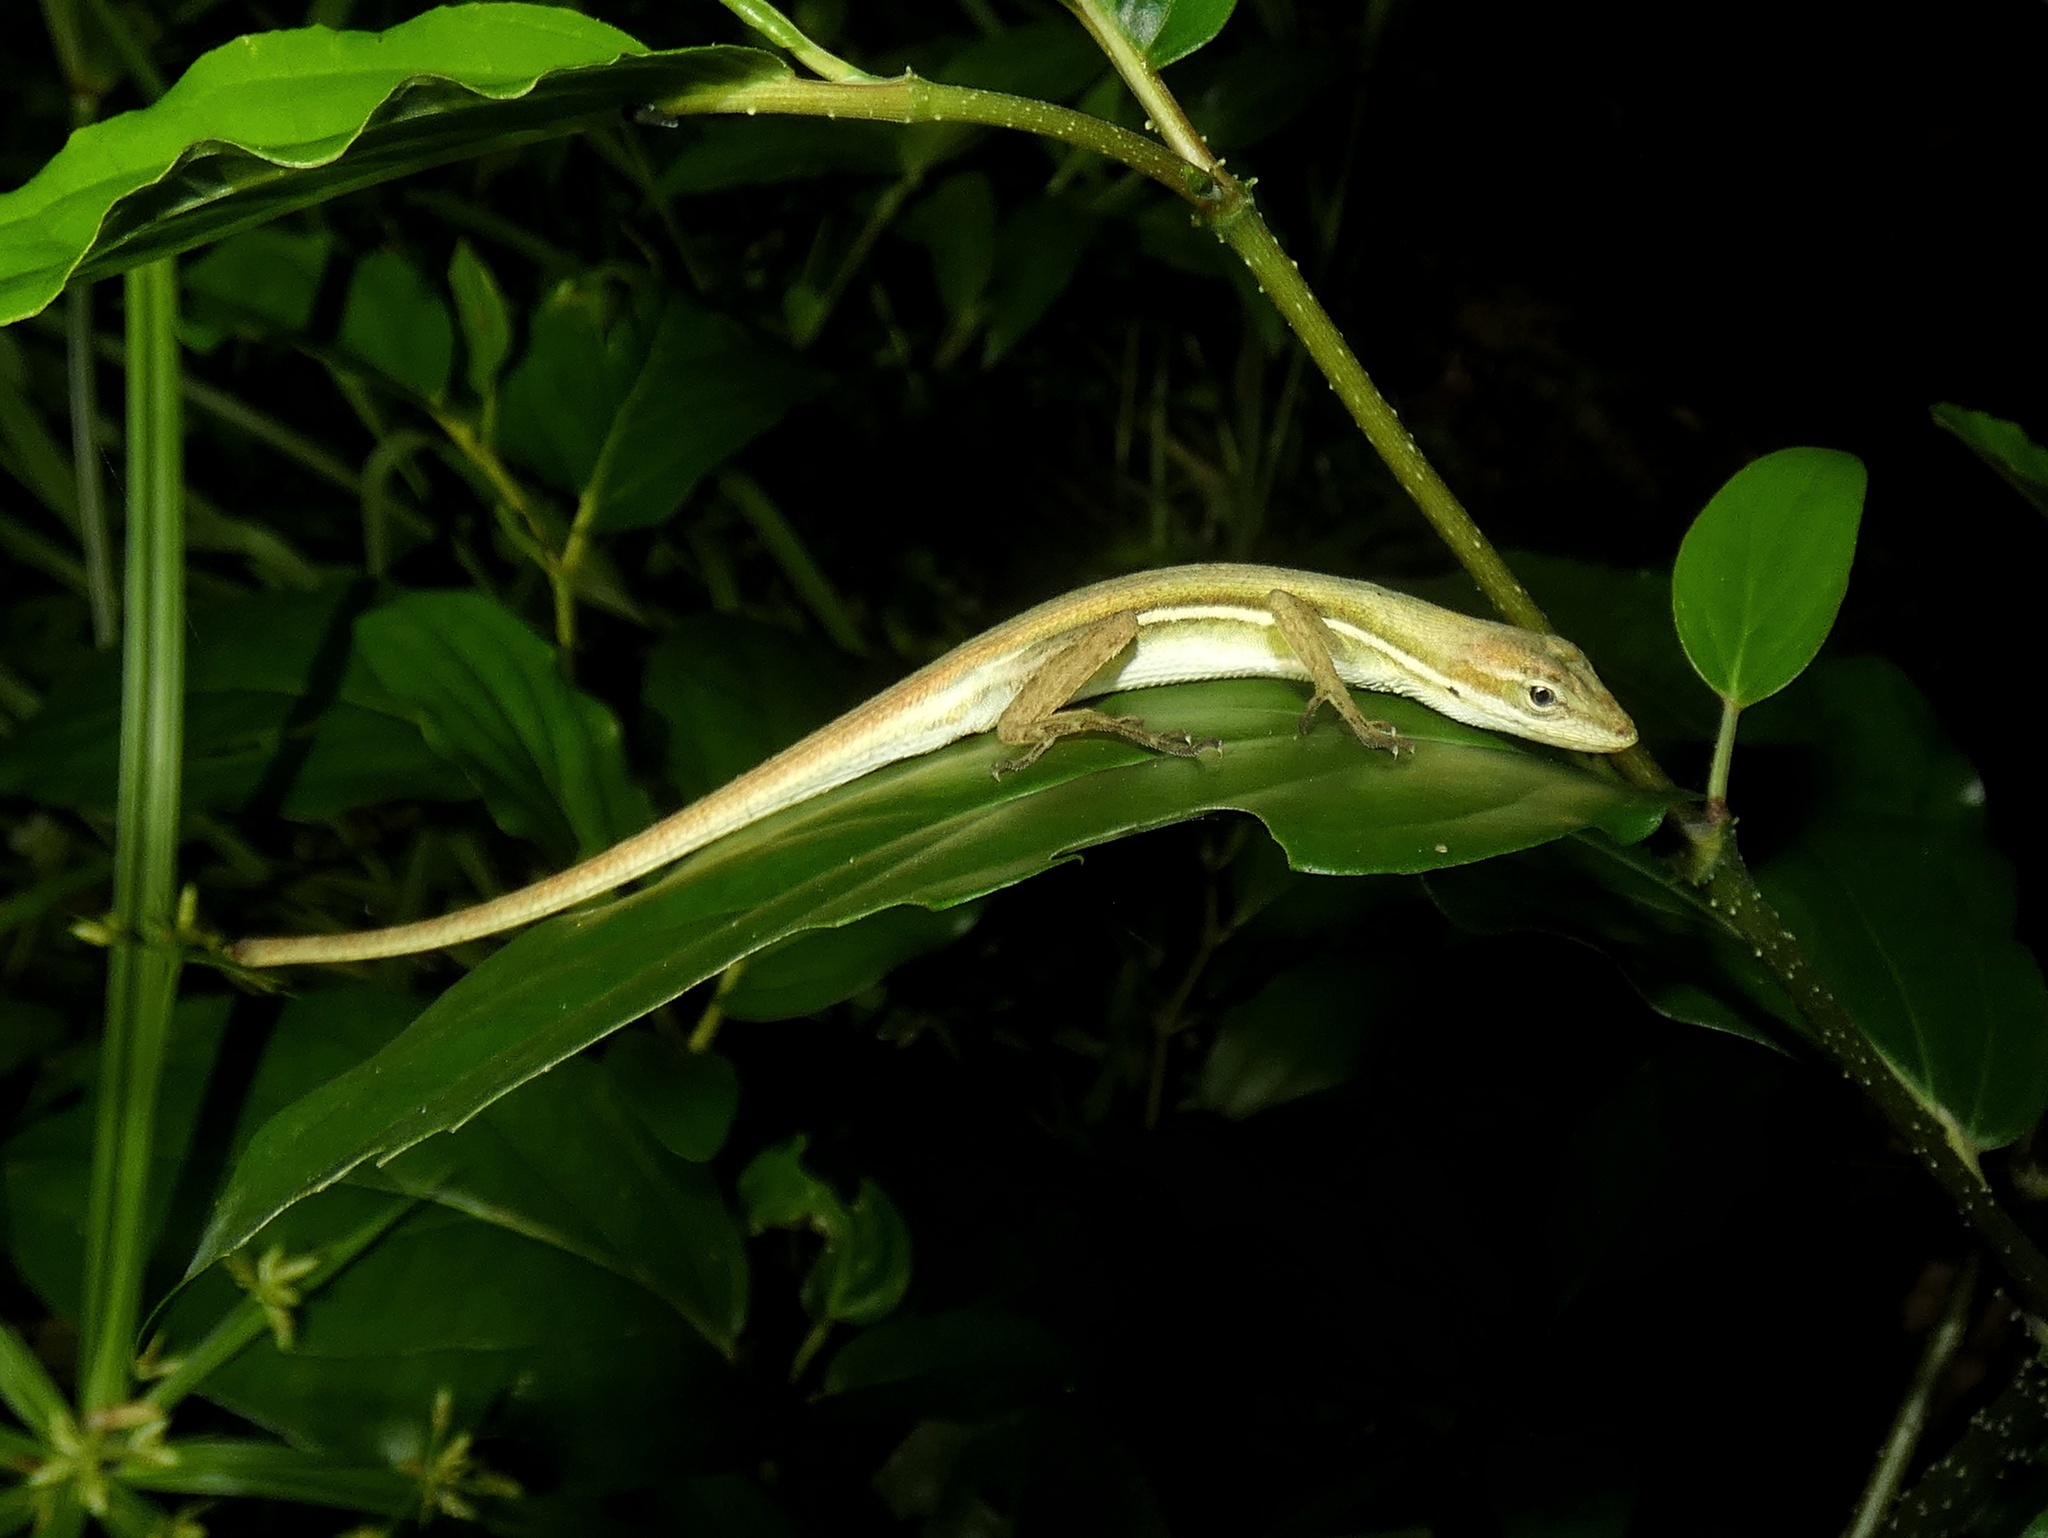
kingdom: Animalia
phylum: Chordata
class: Squamata
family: Dactyloidae
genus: Anolis
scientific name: Anolis auratus
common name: Grass anole
